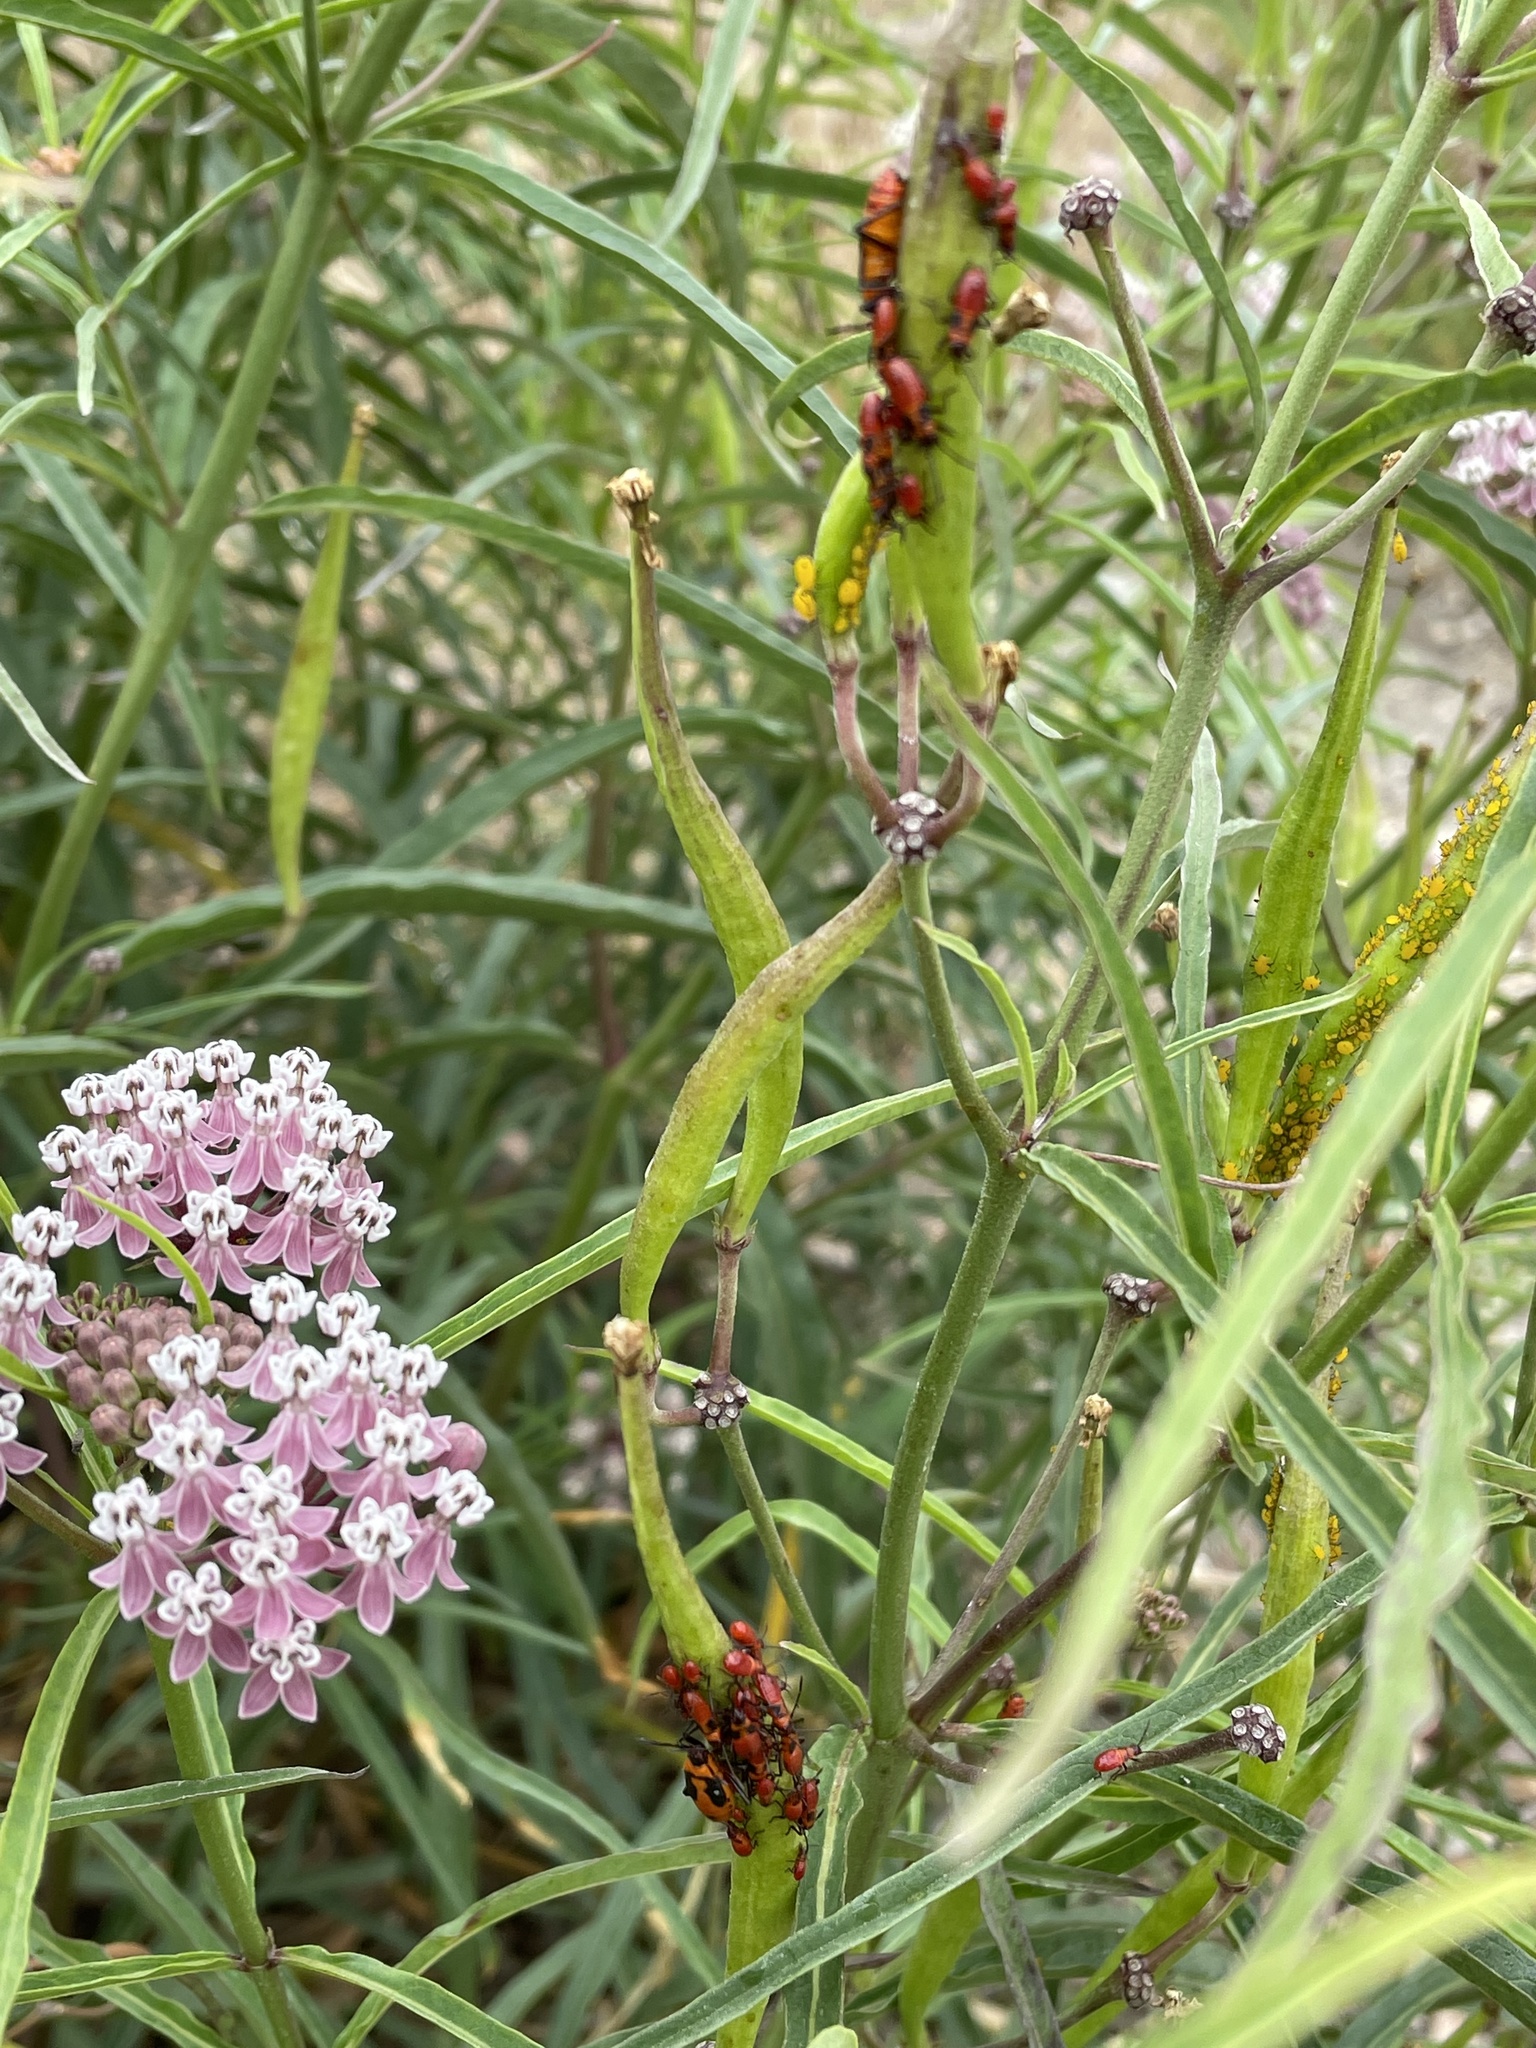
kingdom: Plantae
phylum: Tracheophyta
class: Magnoliopsida
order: Gentianales
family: Apocynaceae
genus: Asclepias
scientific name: Asclepias fascicularis
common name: Mexican milkweed
